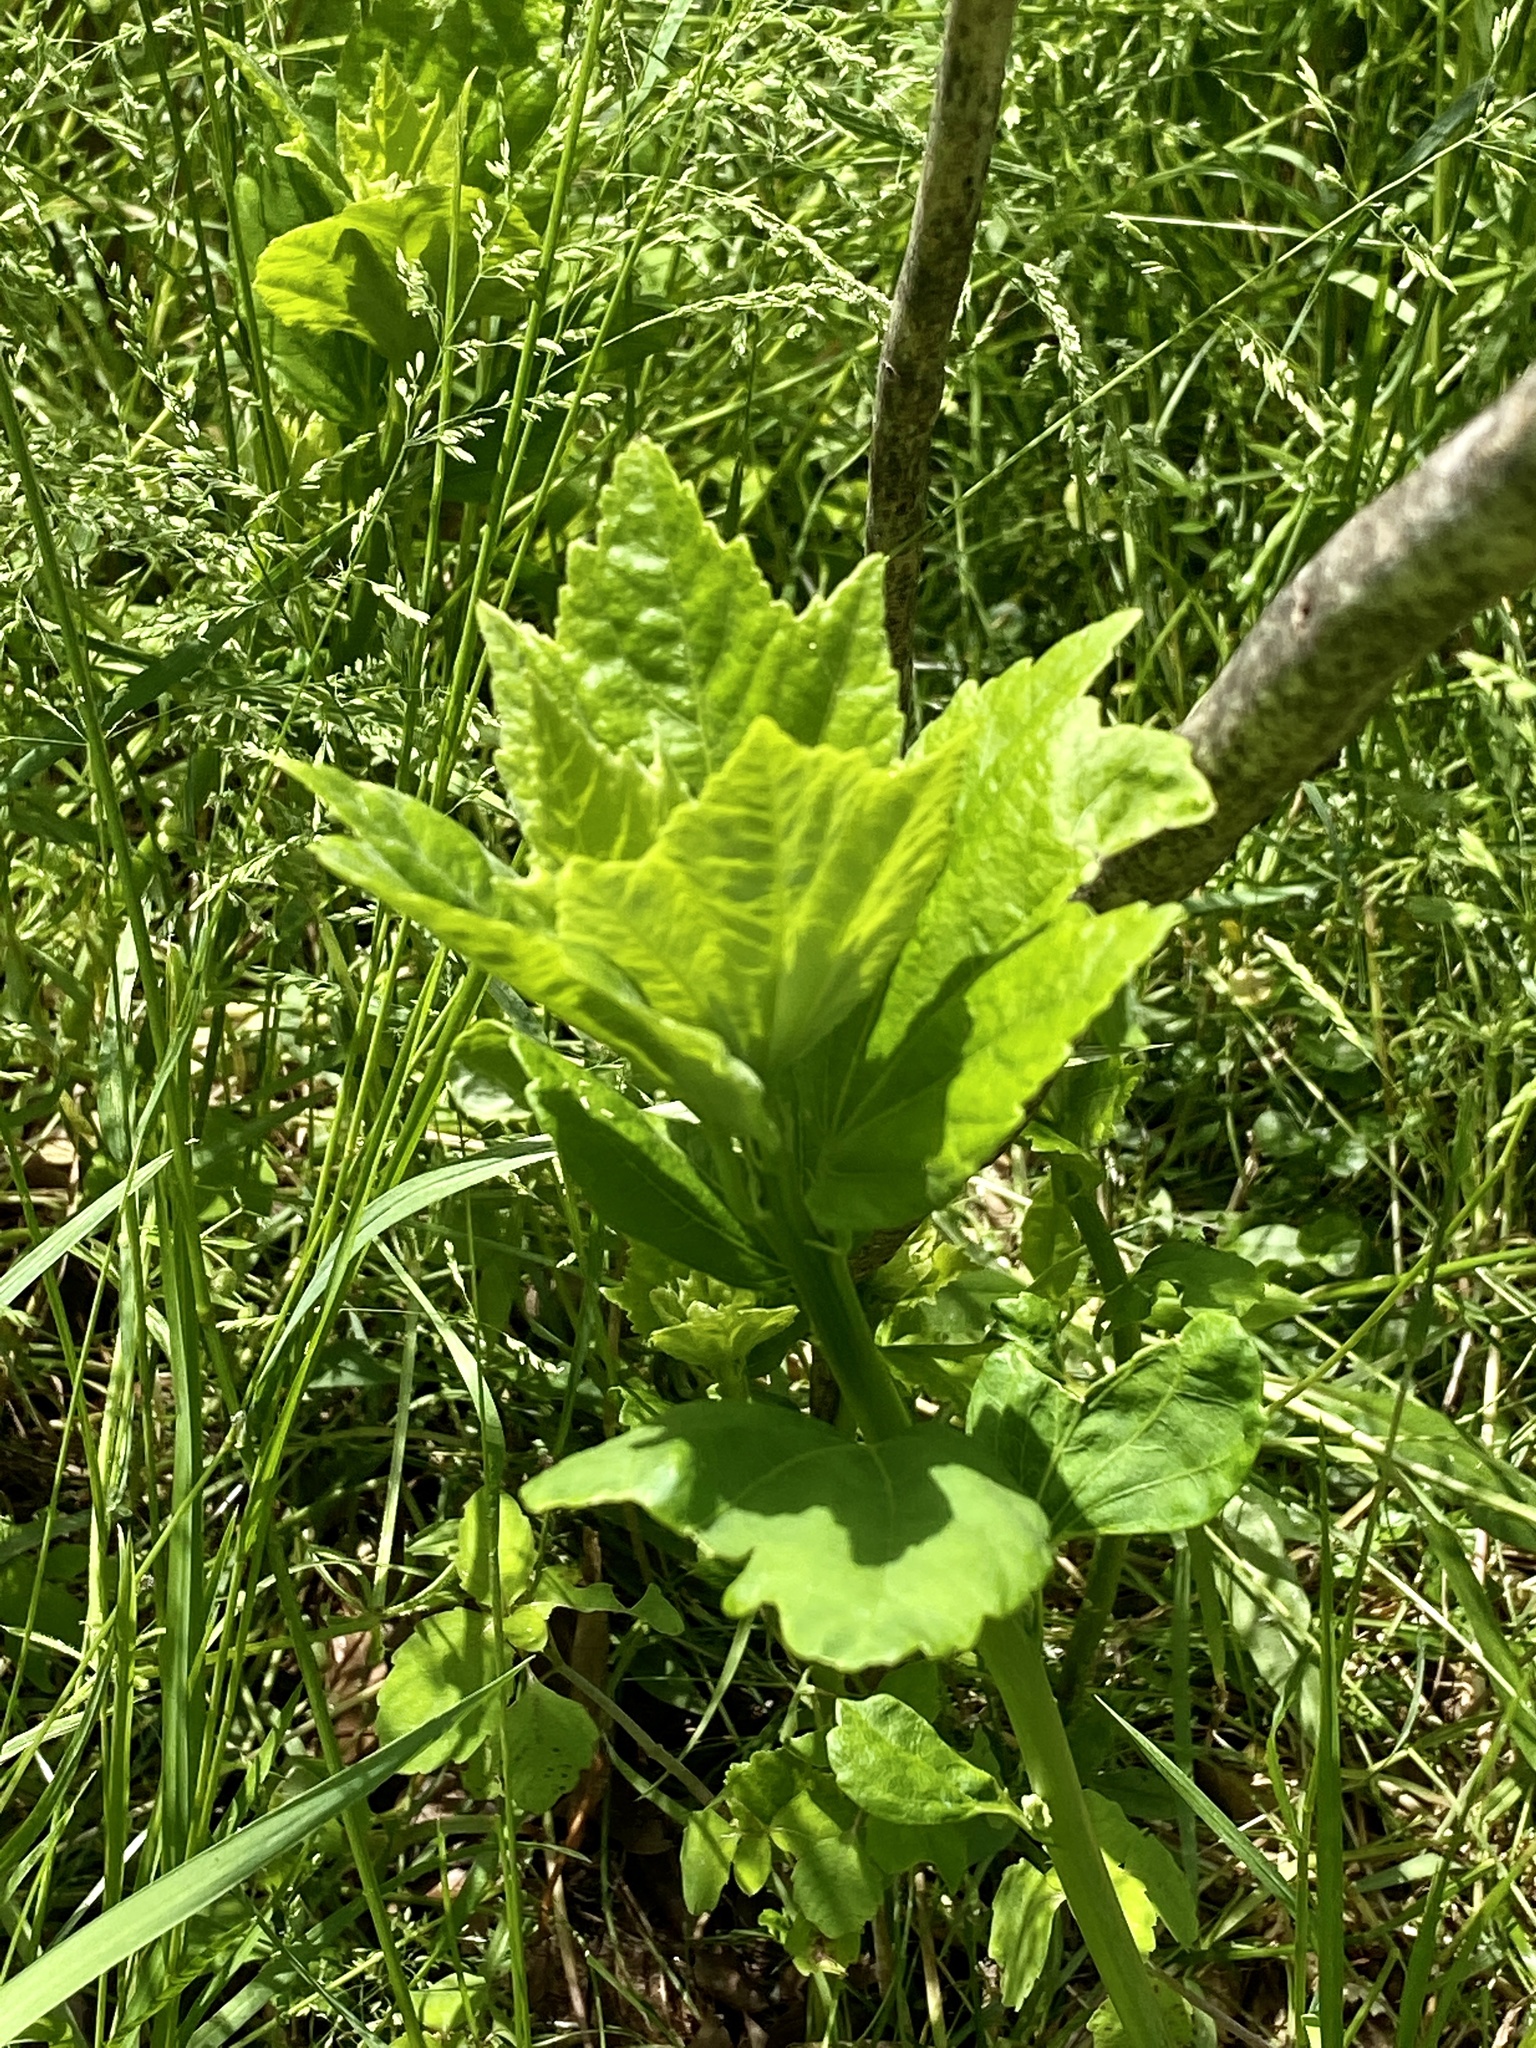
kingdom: Plantae
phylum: Tracheophyta
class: Magnoliopsida
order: Malvales
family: Malvaceae
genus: Hibiscus
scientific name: Hibiscus moscheutos
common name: Common rose-mallow
